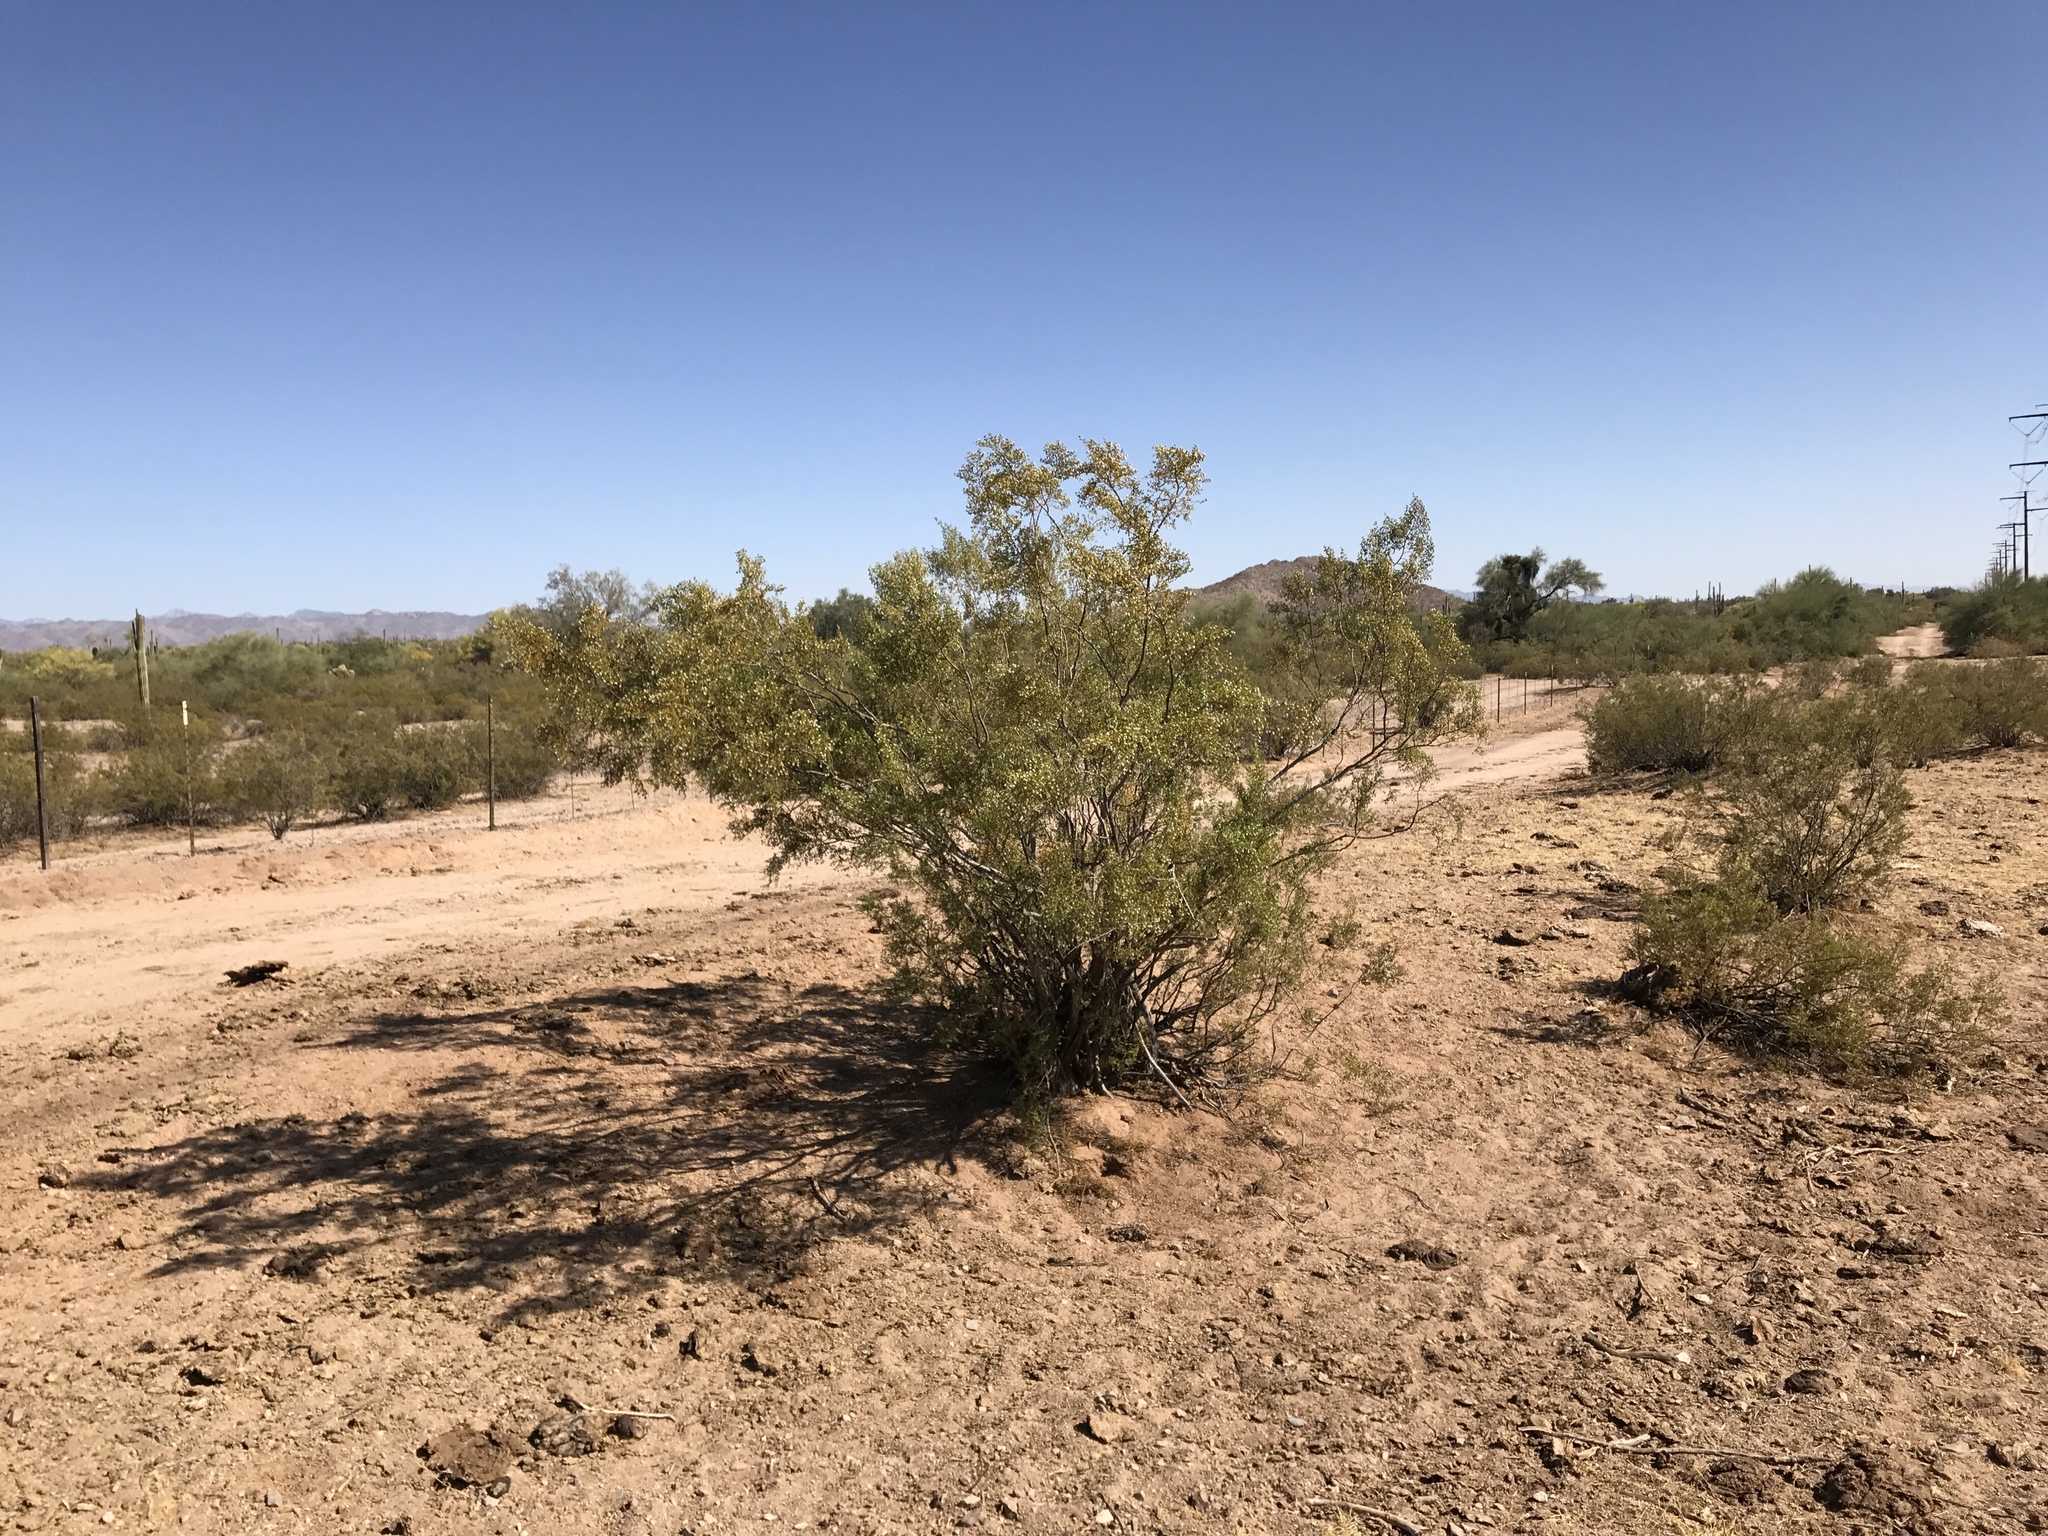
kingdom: Plantae
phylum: Tracheophyta
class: Magnoliopsida
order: Zygophyllales
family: Zygophyllaceae
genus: Larrea
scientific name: Larrea tridentata
